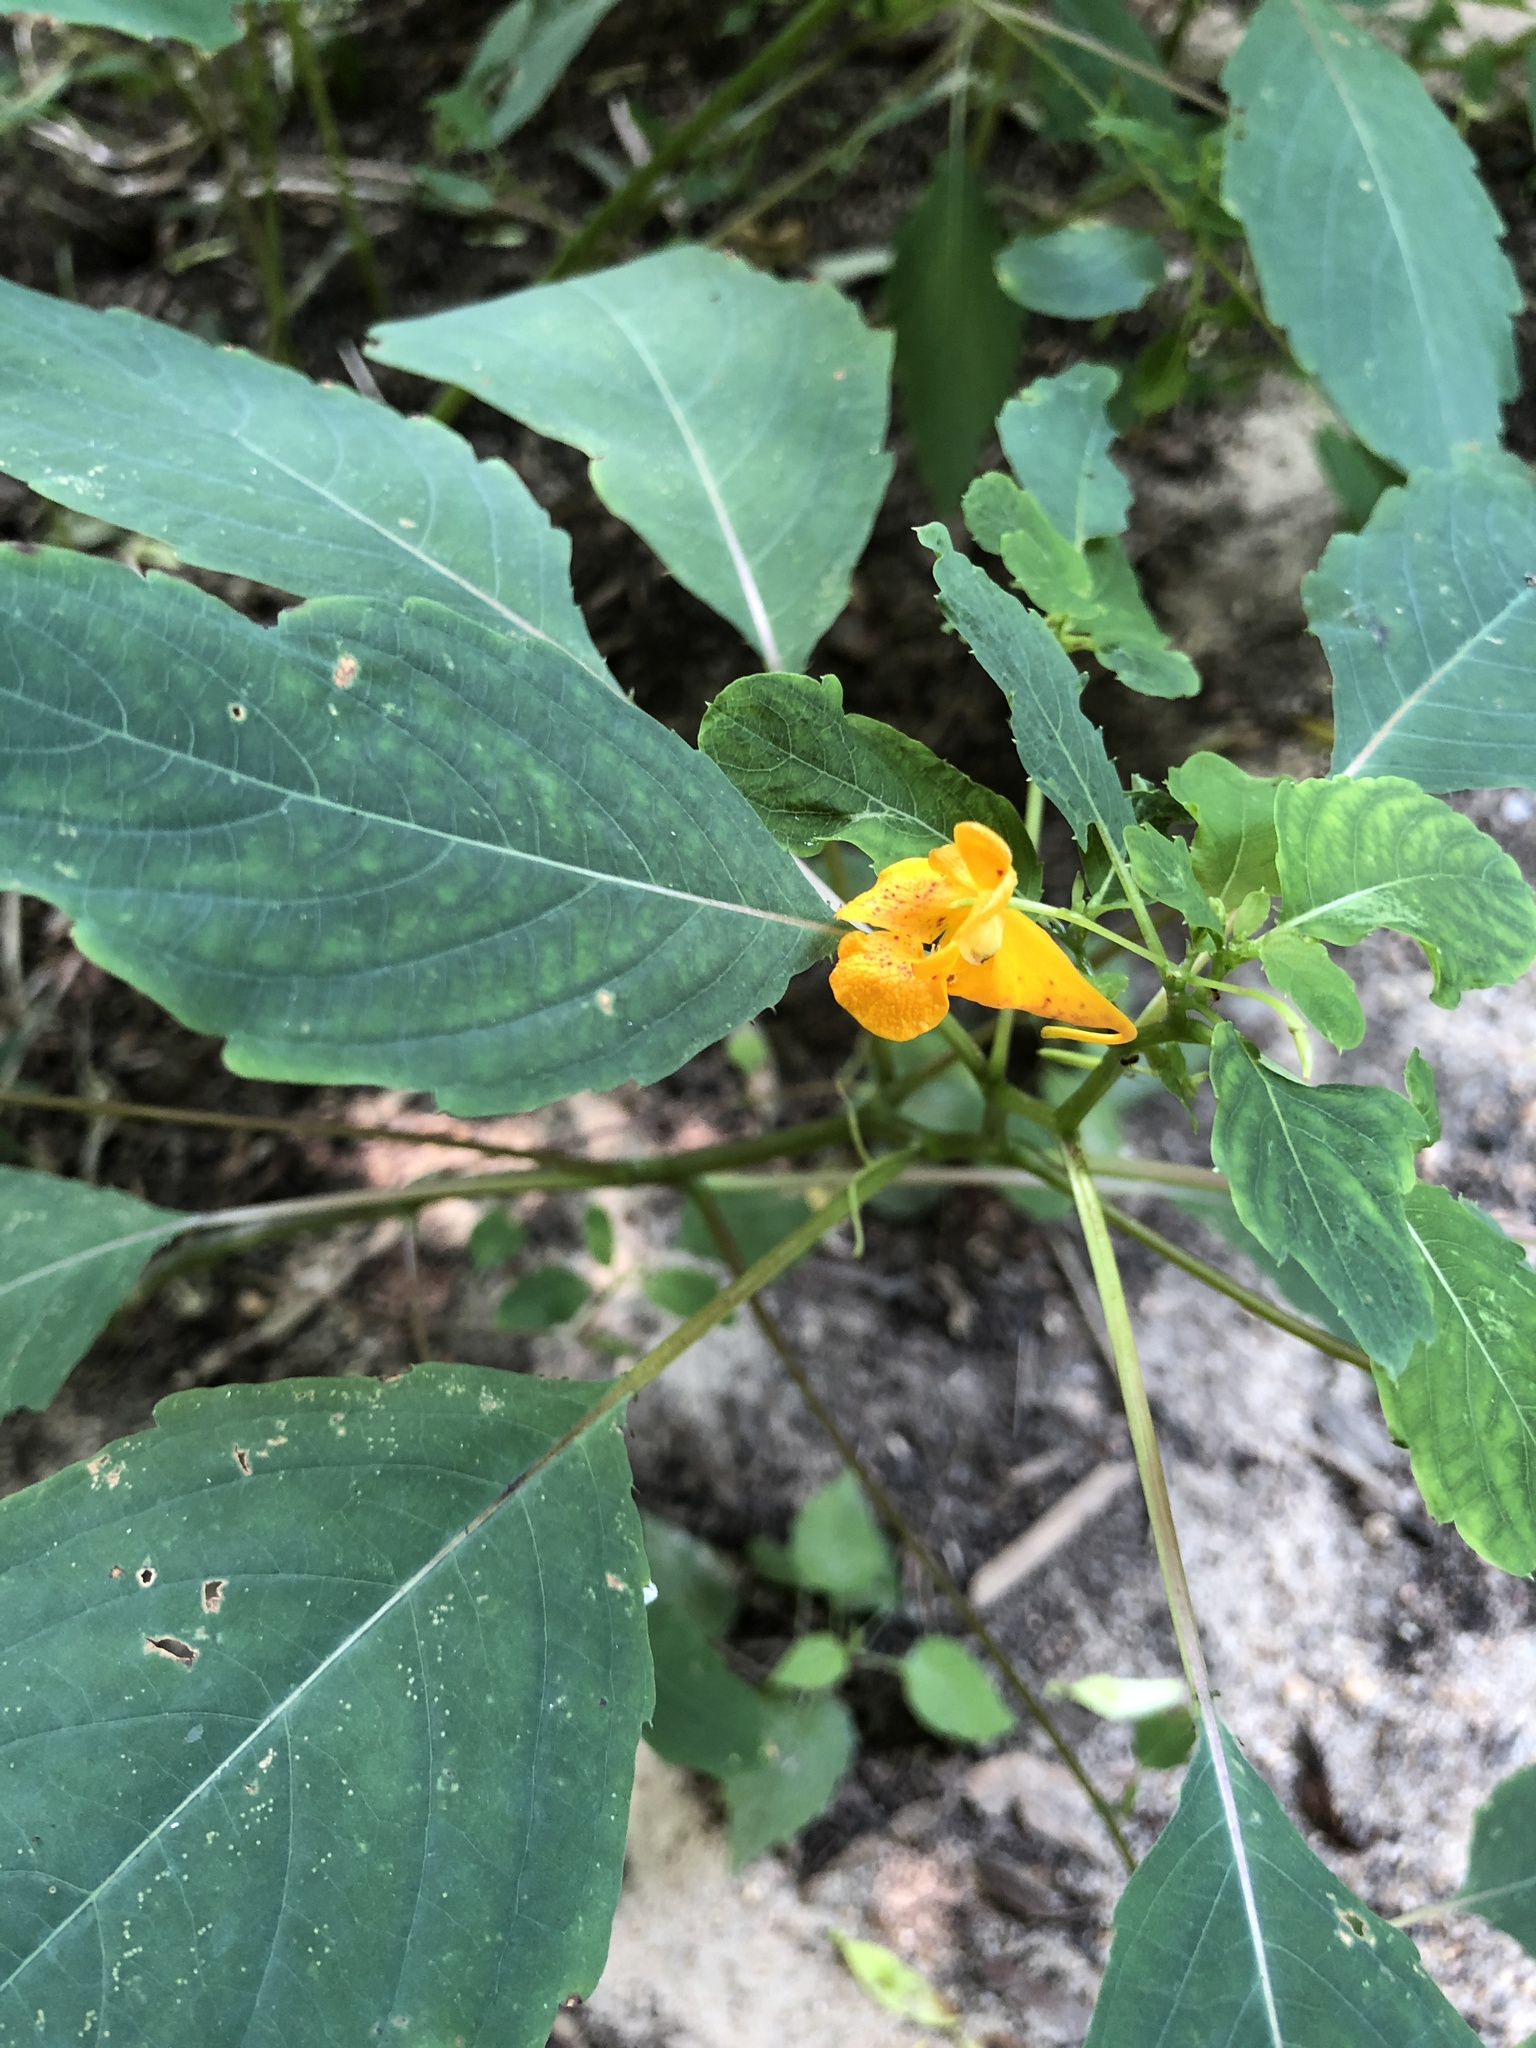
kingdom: Plantae
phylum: Tracheophyta
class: Magnoliopsida
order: Ericales
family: Balsaminaceae
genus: Impatiens
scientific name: Impatiens capensis
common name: Orange balsam
